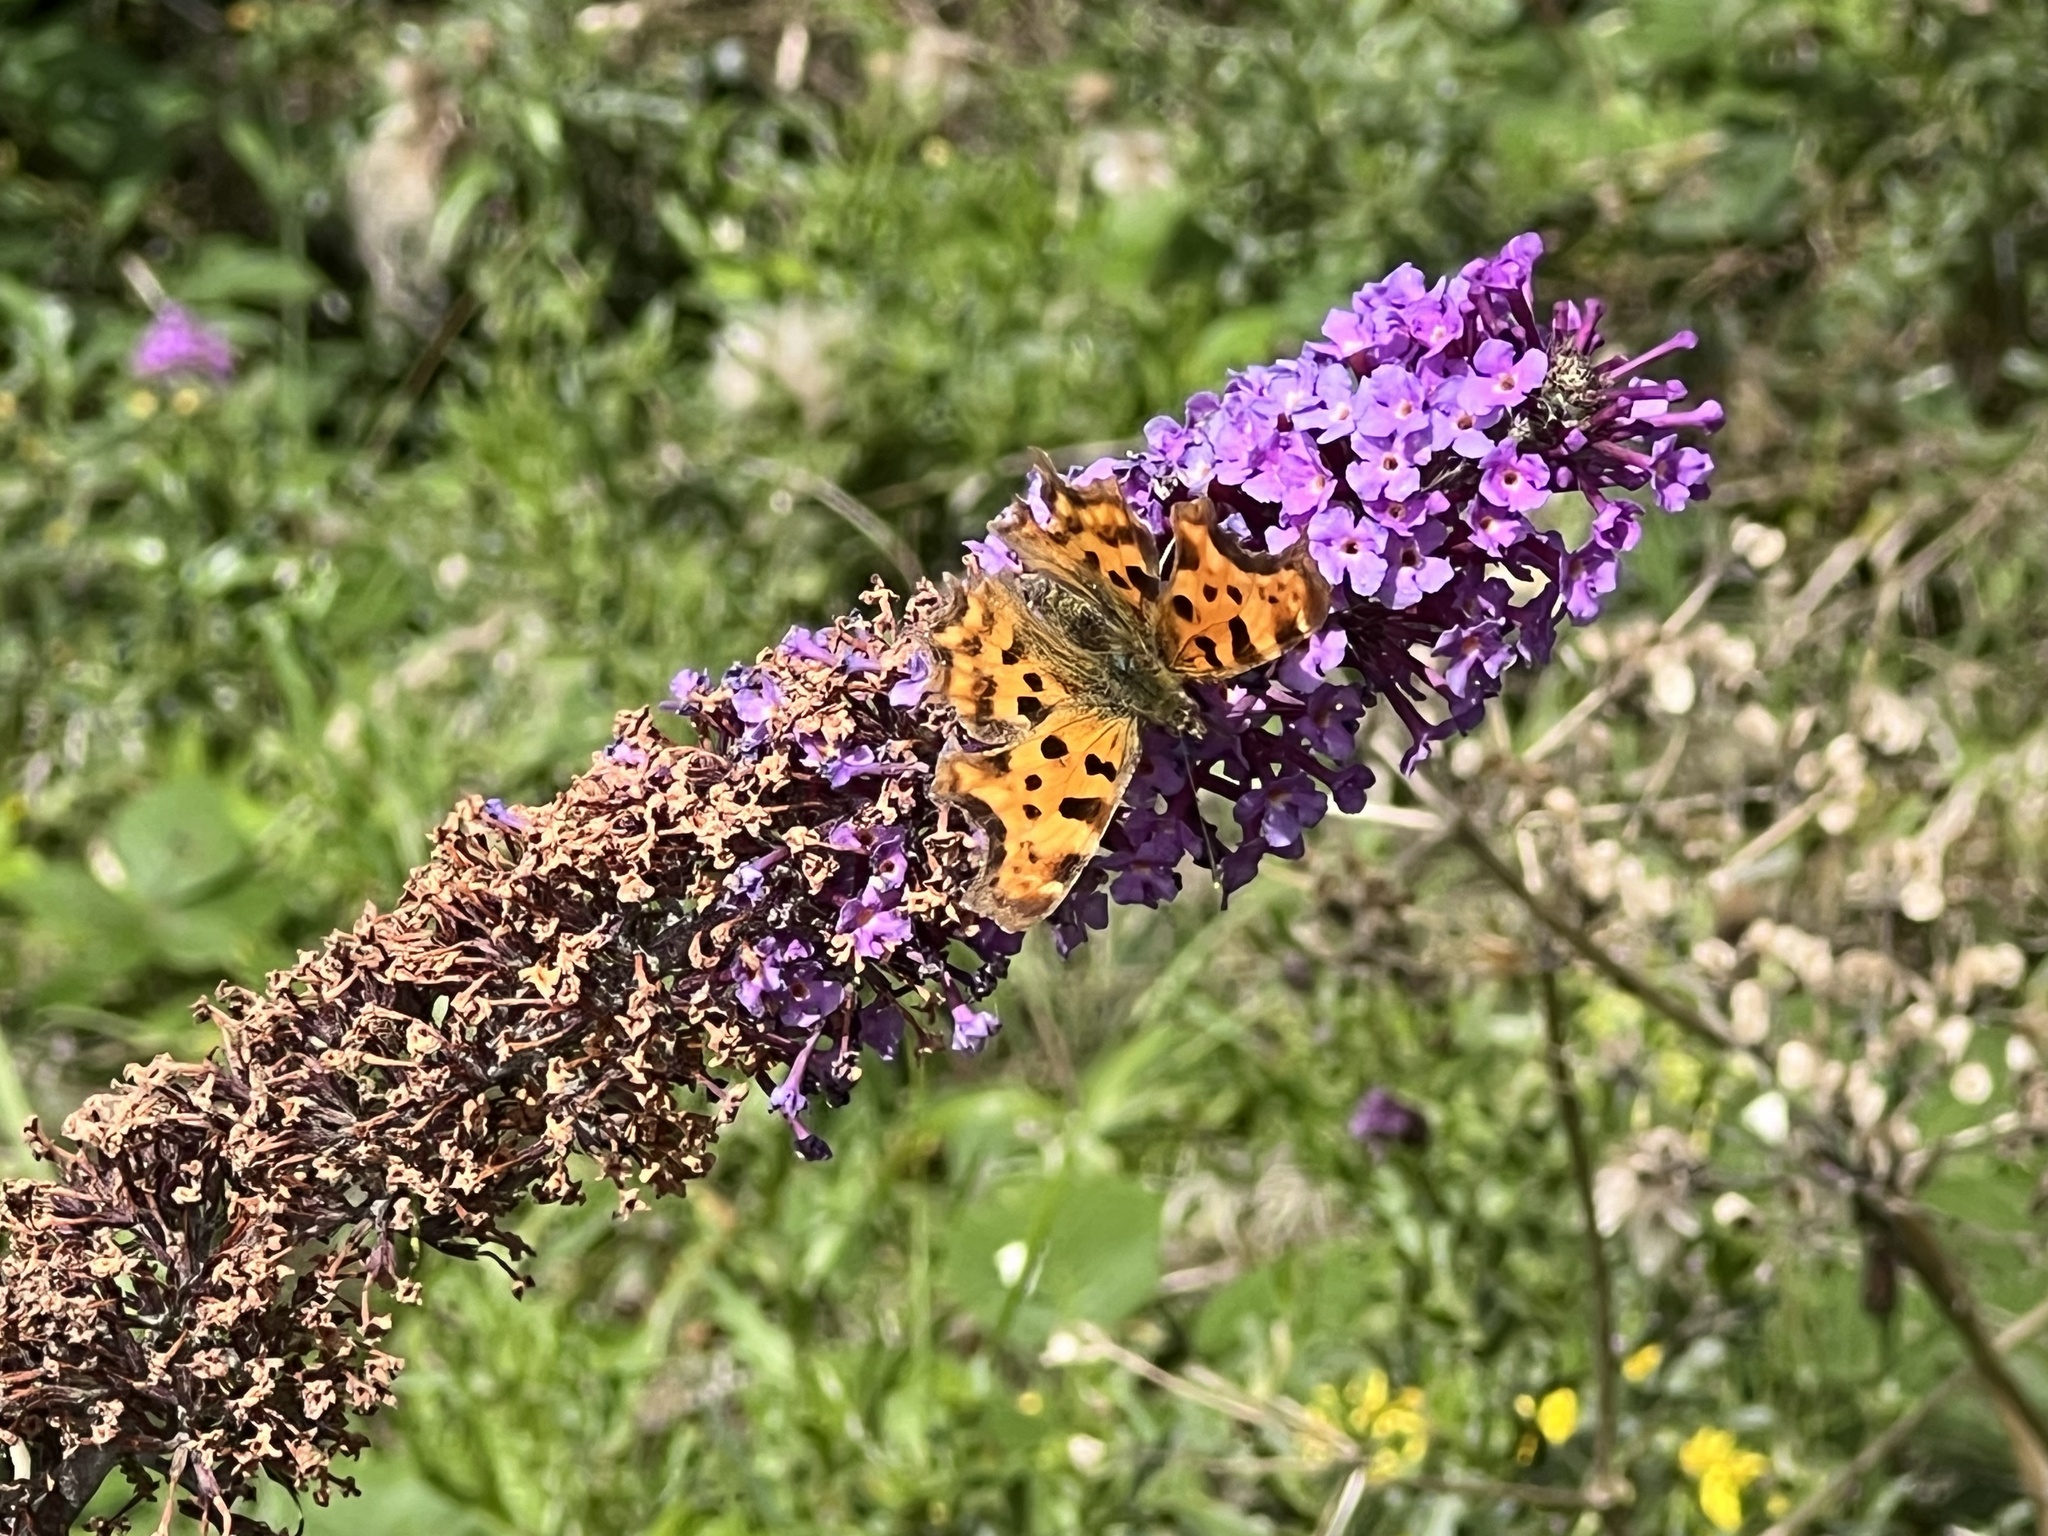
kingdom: Animalia
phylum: Arthropoda
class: Insecta
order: Lepidoptera
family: Nymphalidae
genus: Polygonia
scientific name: Polygonia c-album
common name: Comma
